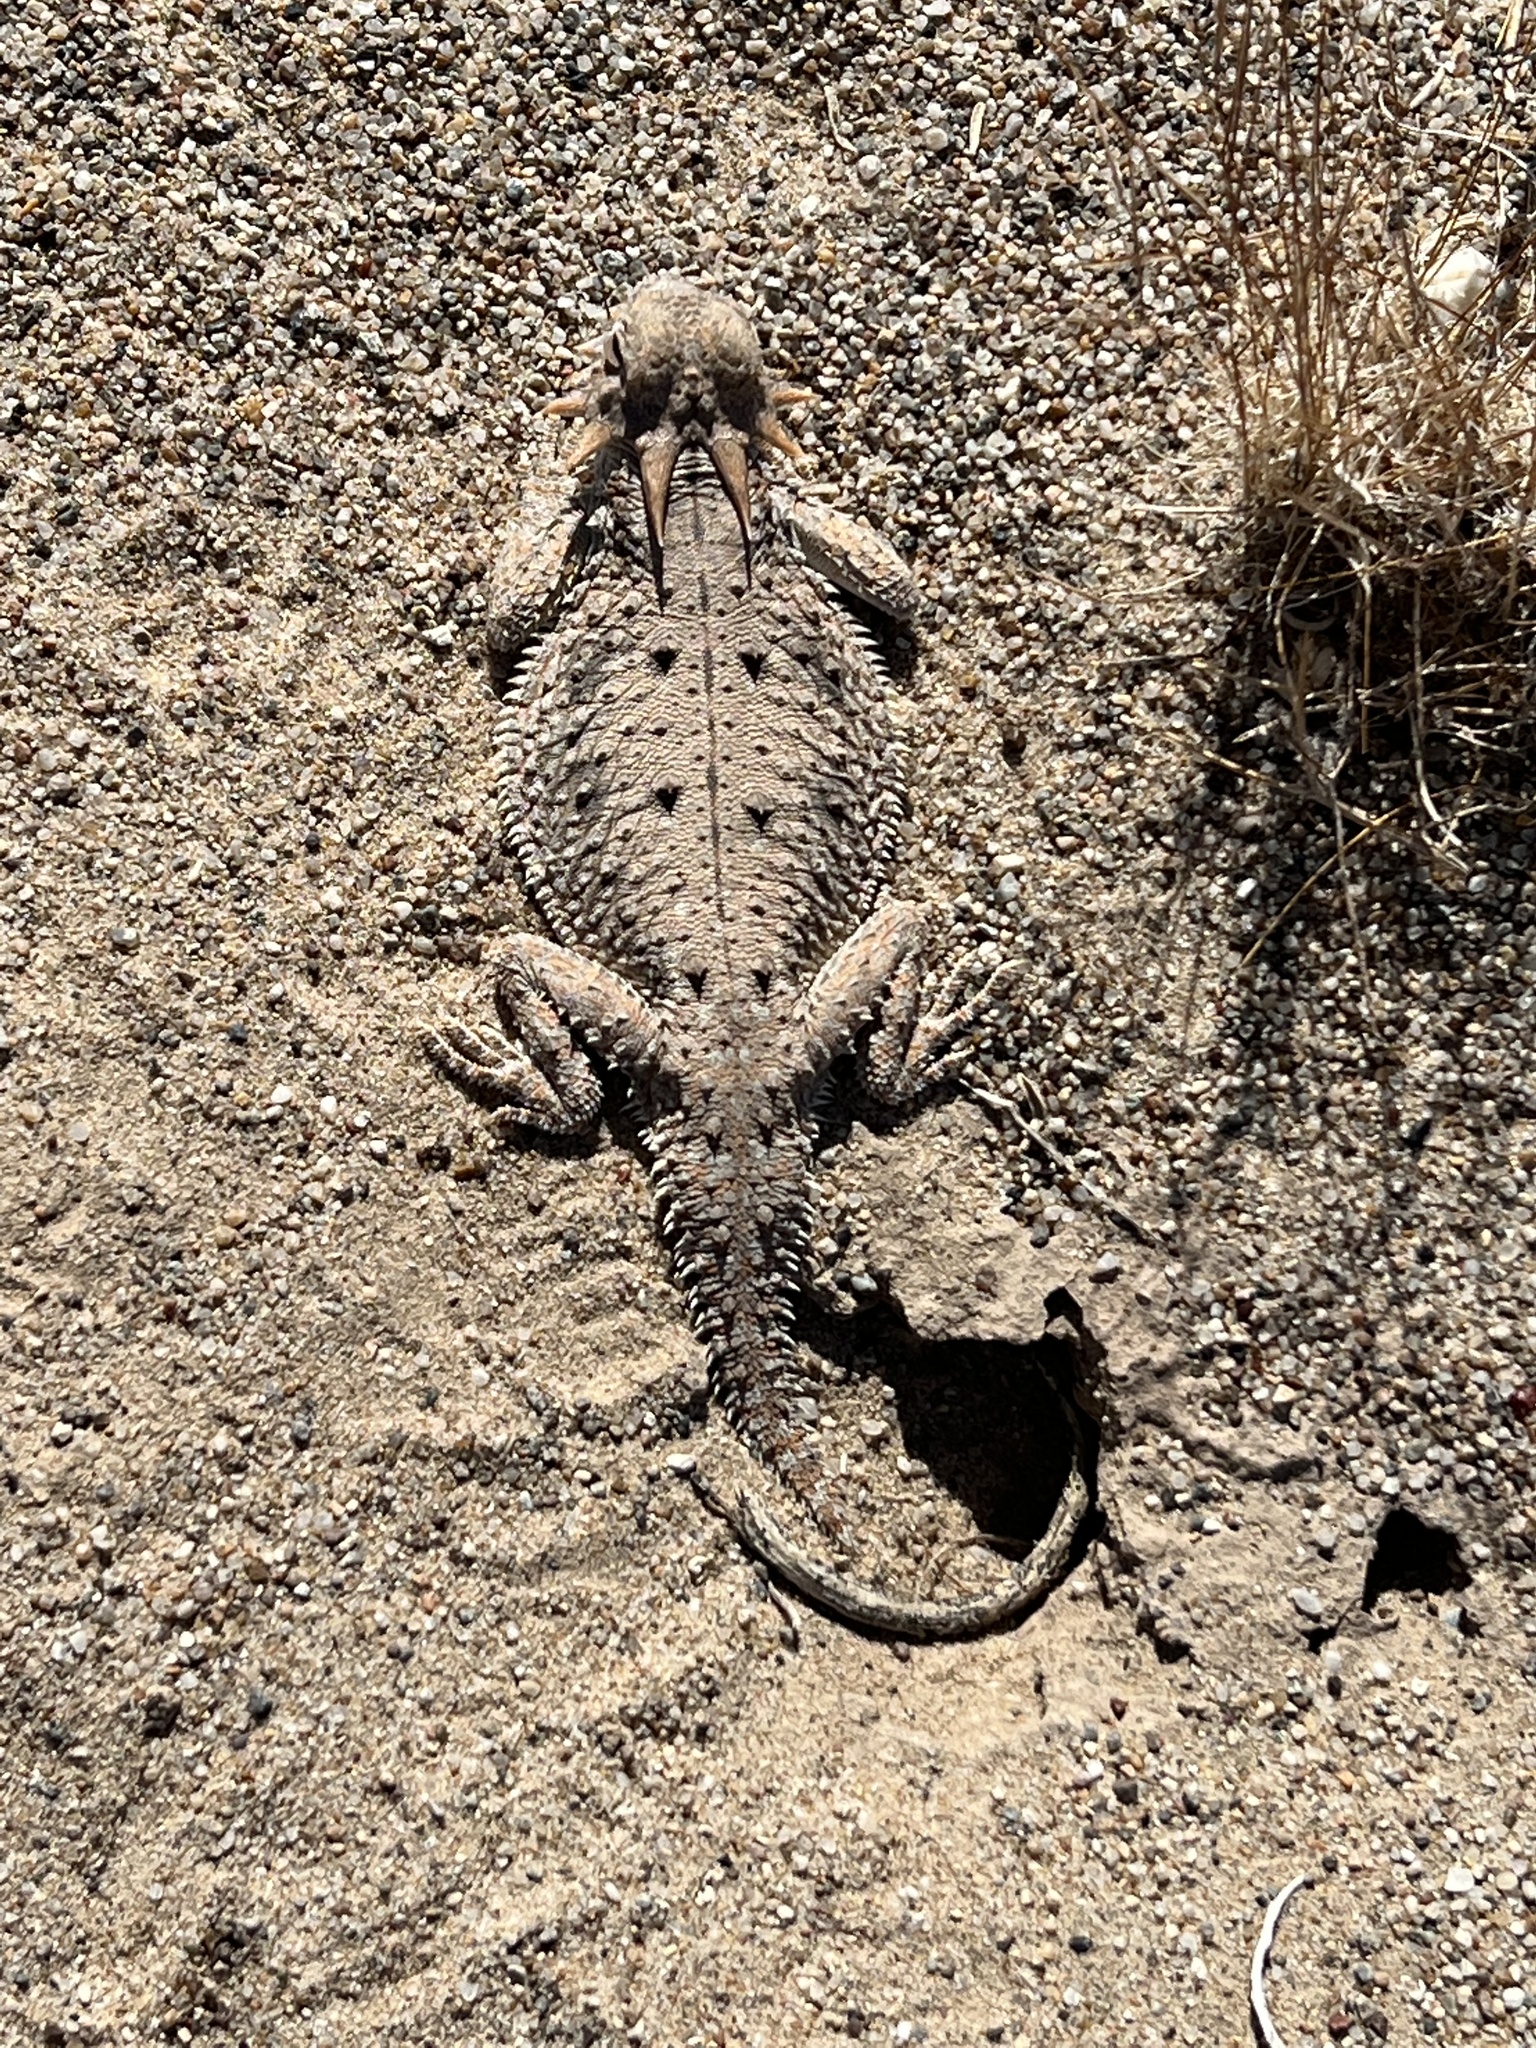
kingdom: Animalia
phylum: Chordata
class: Squamata
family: Phrynosomatidae
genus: Phrynosoma
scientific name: Phrynosoma mcallii
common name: Flat-tailed horned lizard
